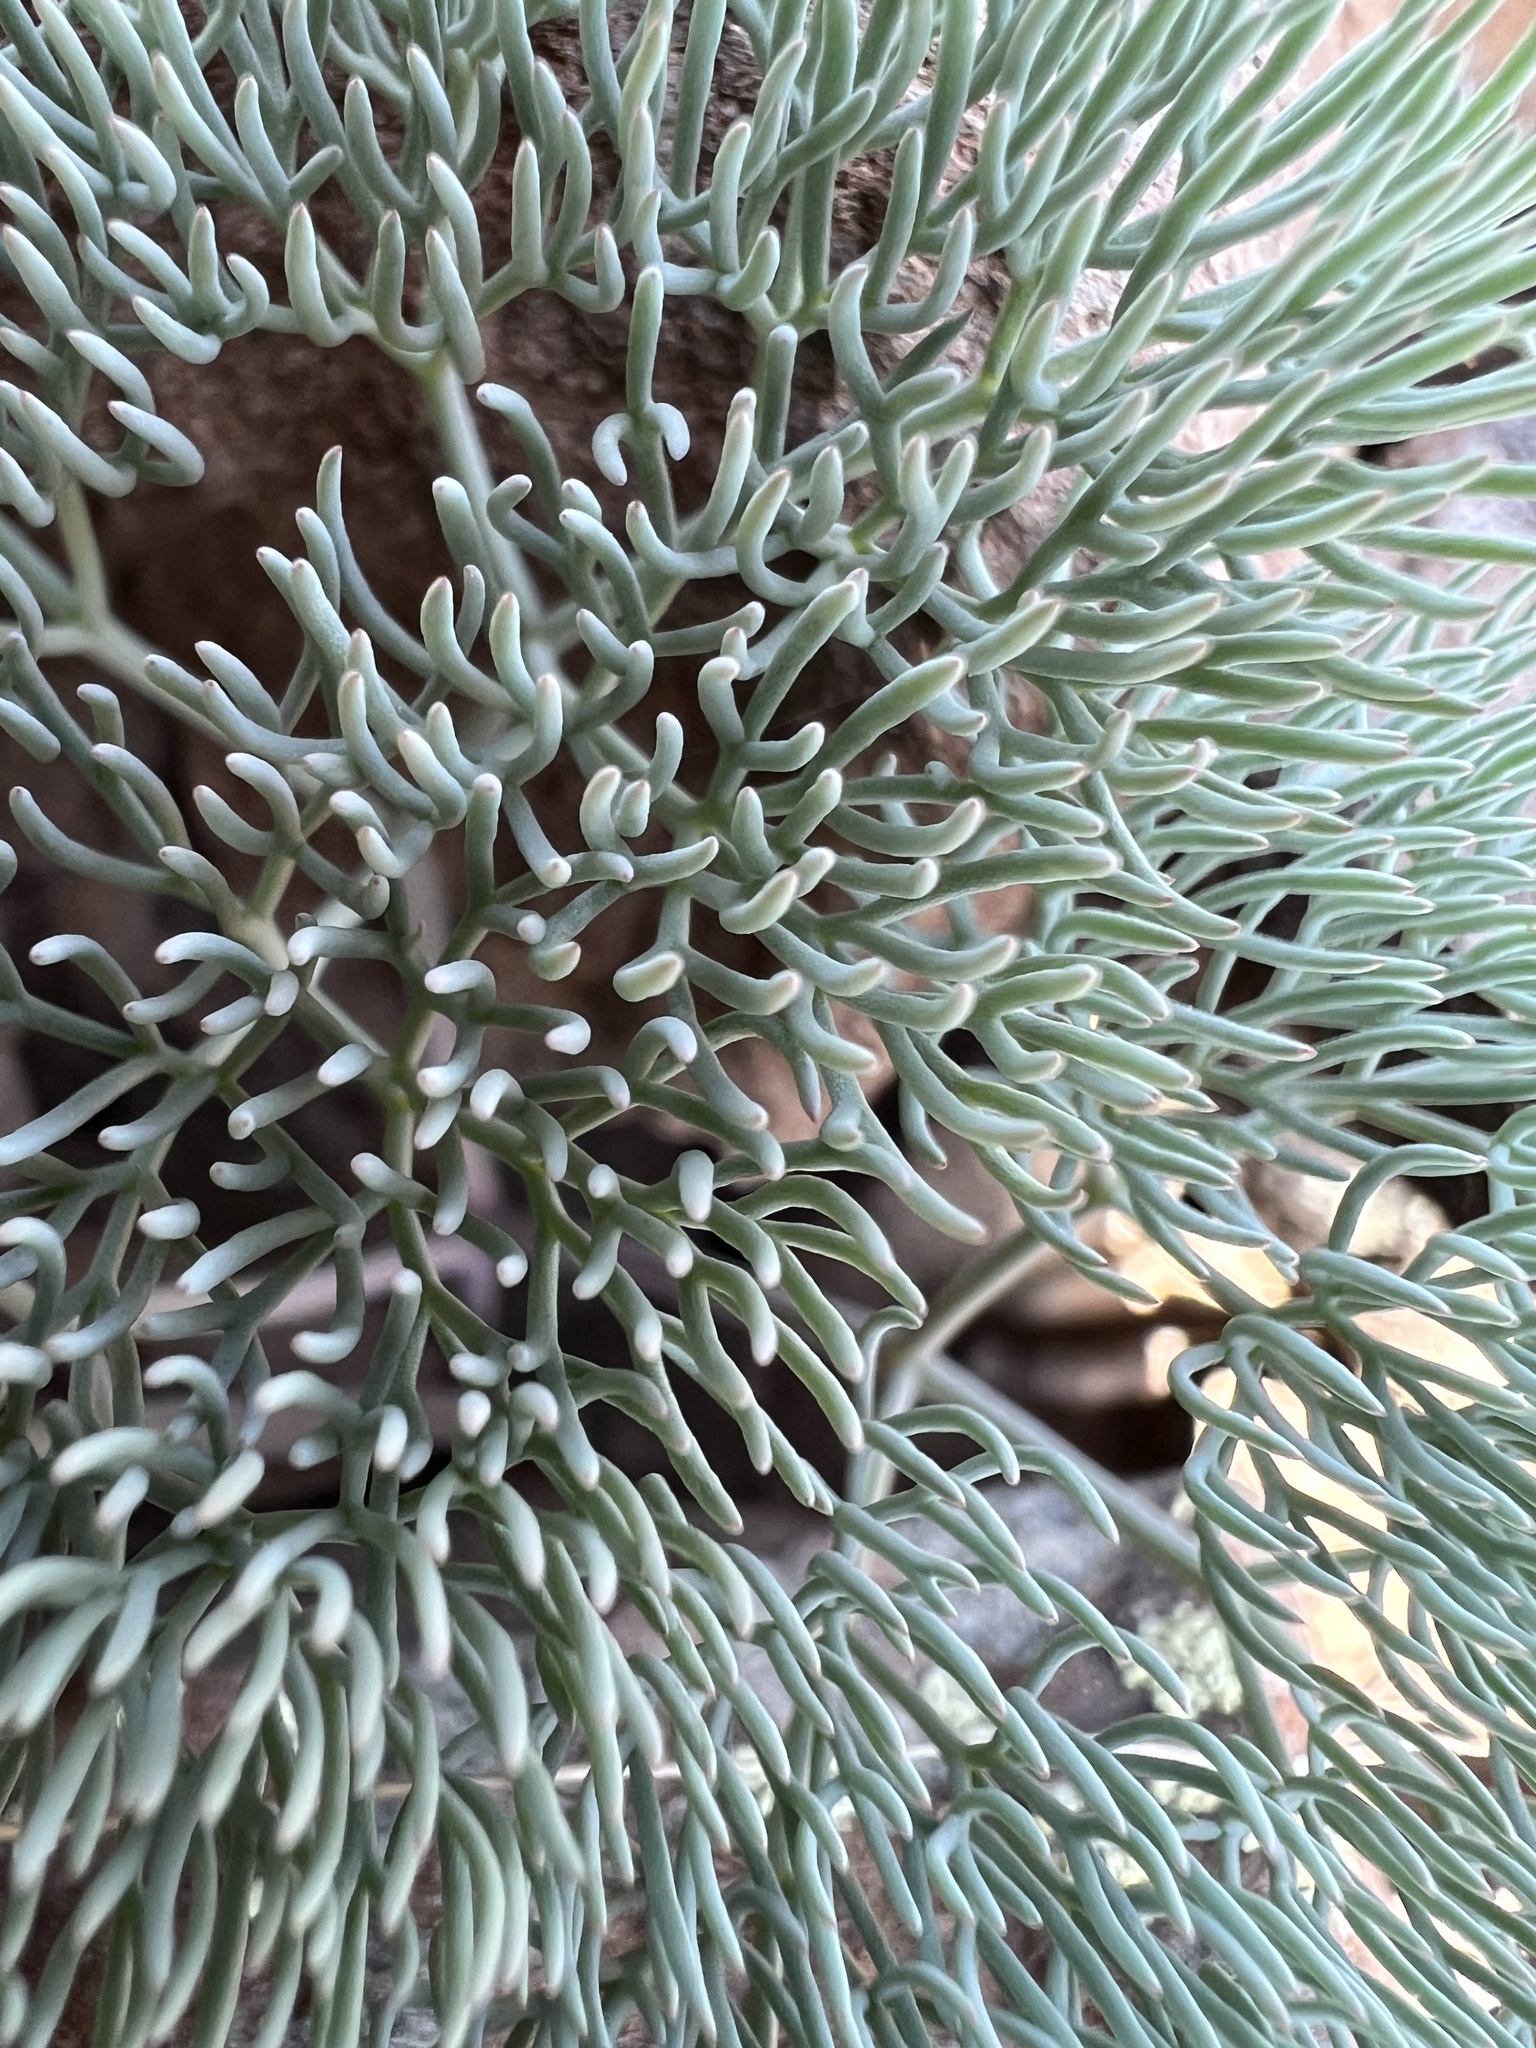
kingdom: Plantae
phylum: Tracheophyta
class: Magnoliopsida
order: Apiales
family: Apiaceae
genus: Lomatium
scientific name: Lomatium tuberosum
